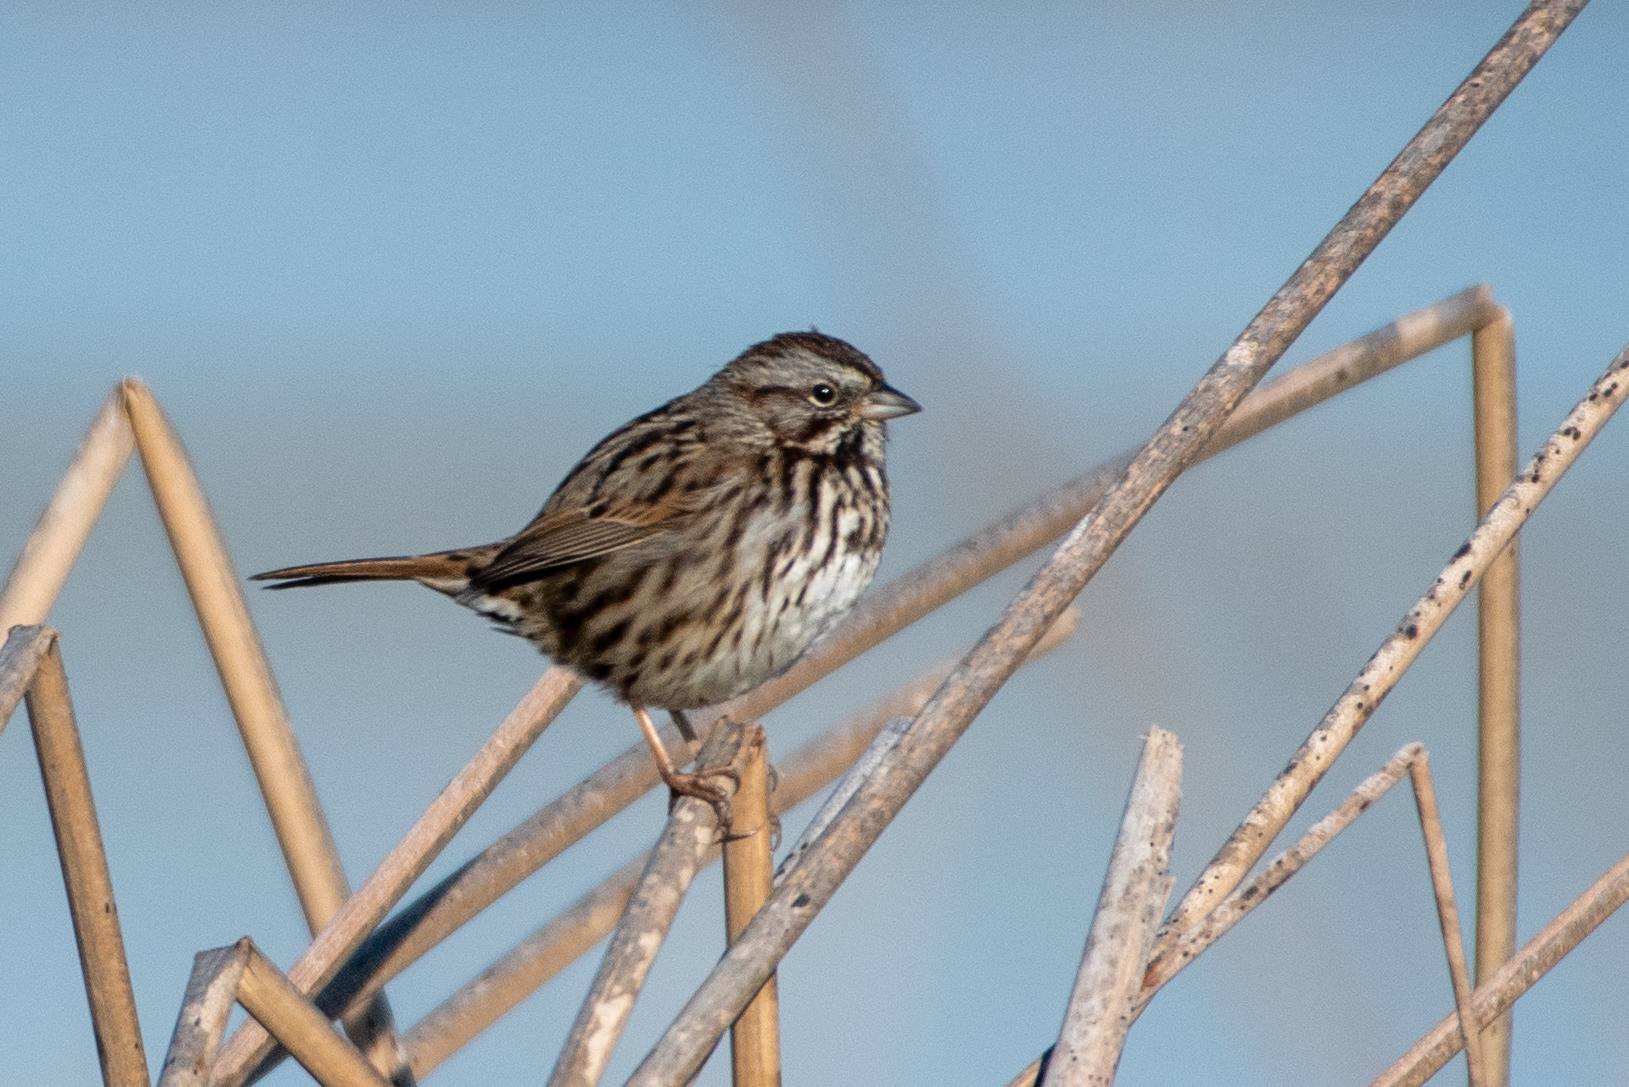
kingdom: Animalia
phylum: Chordata
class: Aves
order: Passeriformes
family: Passerellidae
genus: Melospiza
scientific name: Melospiza melodia
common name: Song sparrow
